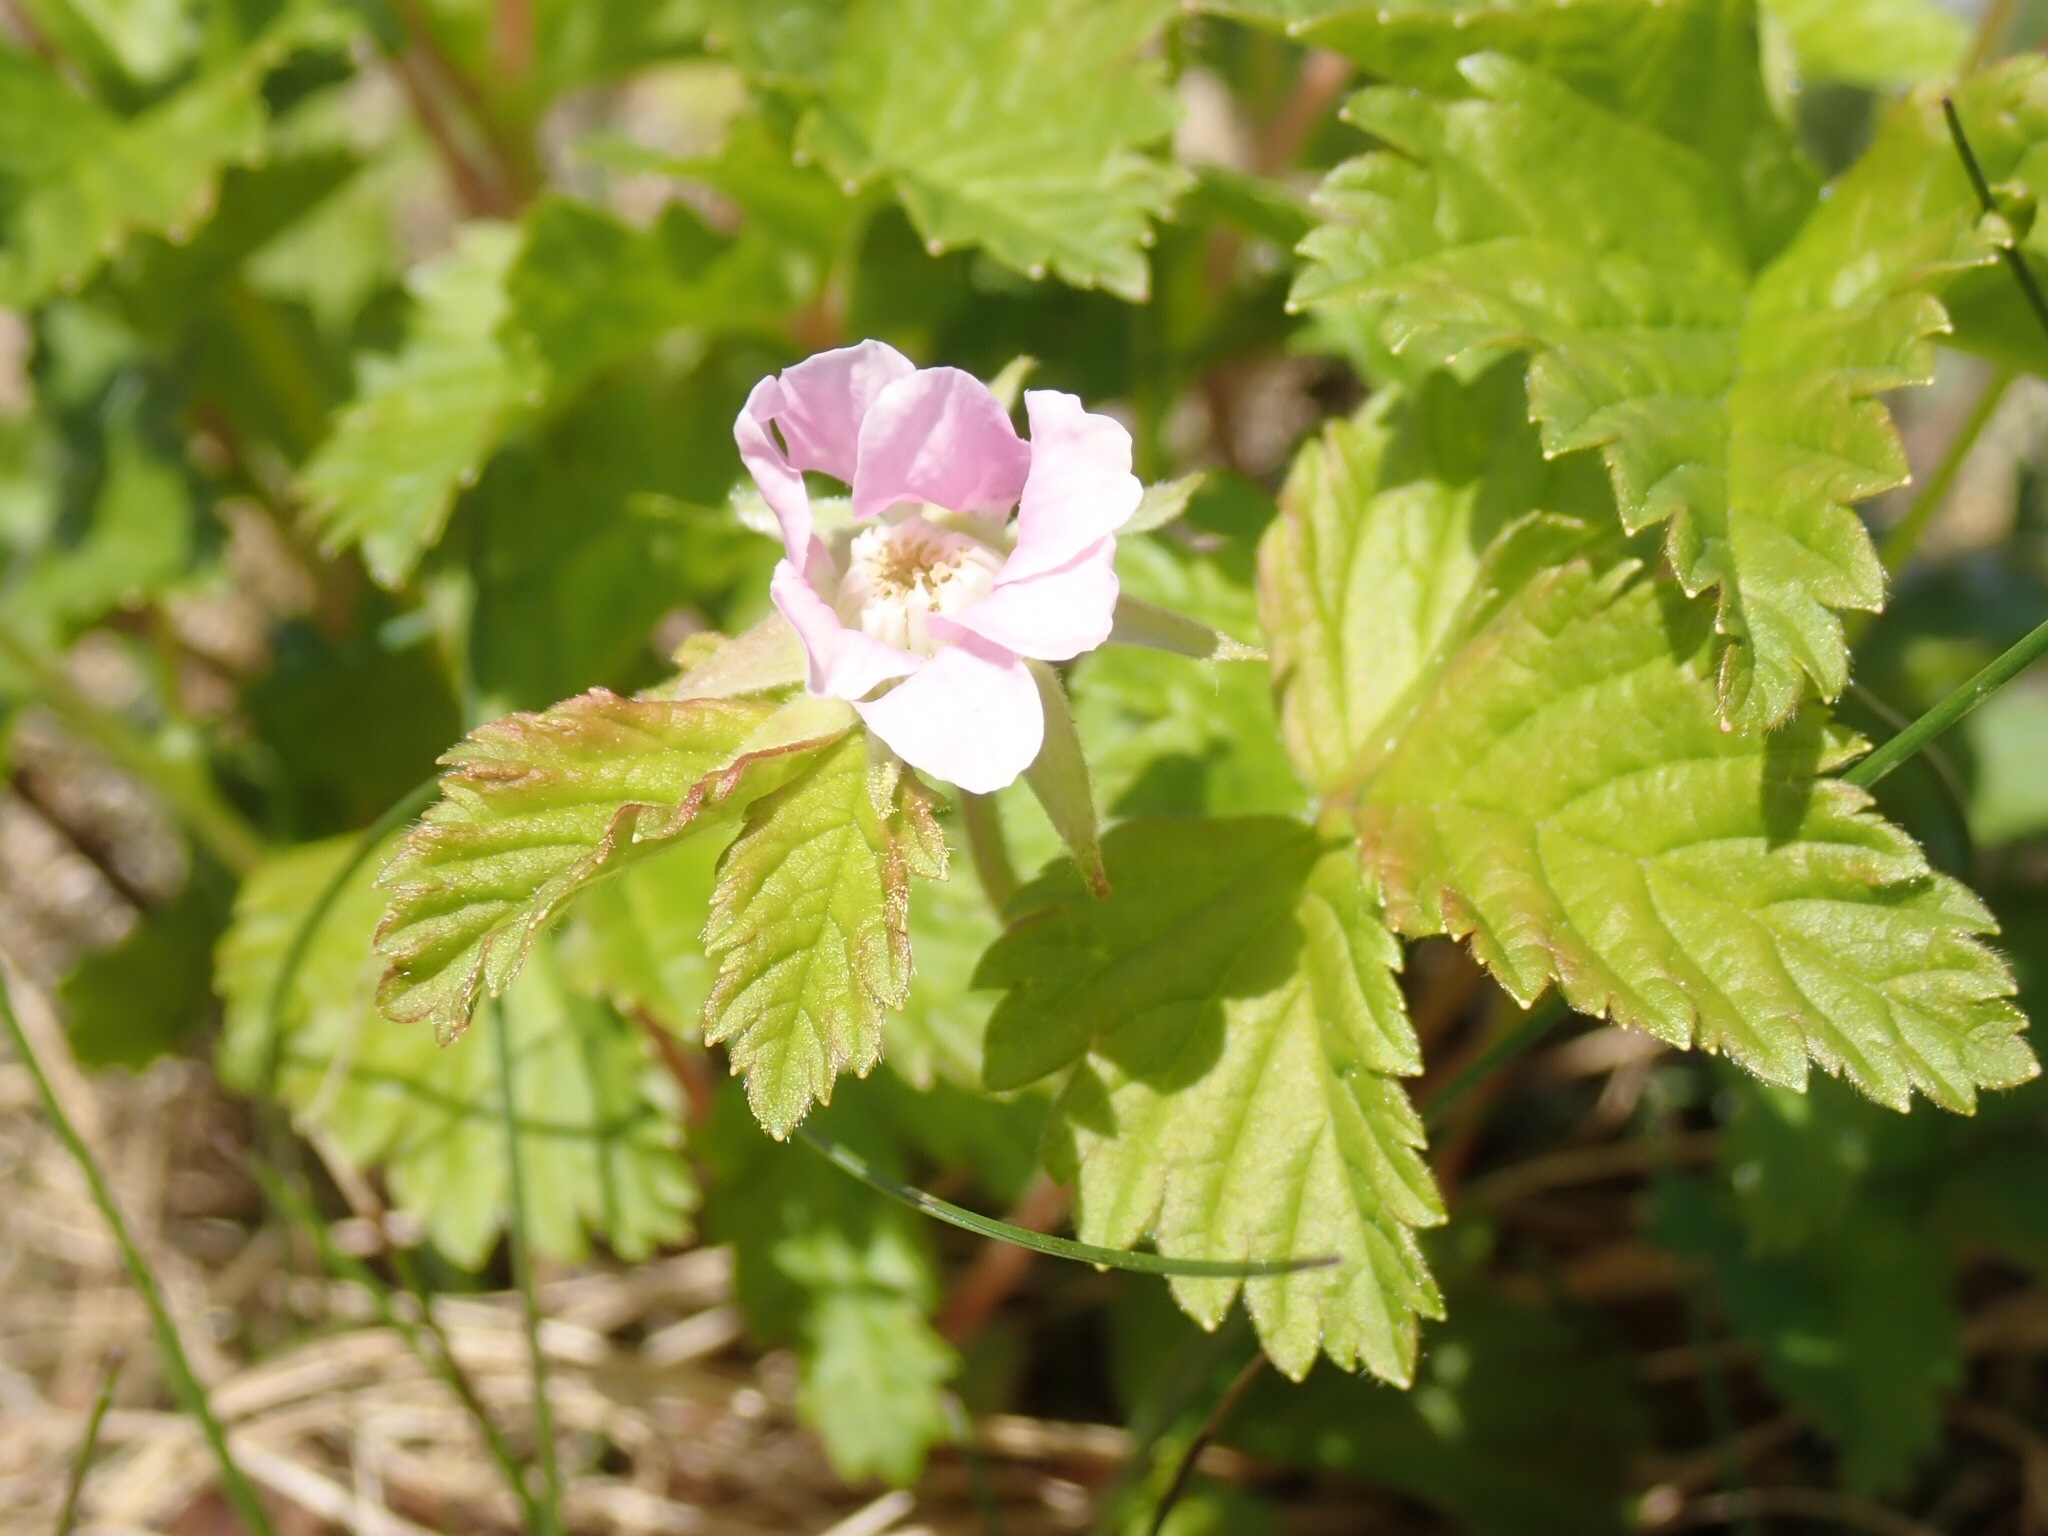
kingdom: Plantae
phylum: Tracheophyta
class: Magnoliopsida
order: Rosales
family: Rosaceae
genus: Rubus
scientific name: Rubus arcticus
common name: Arctic bramble
